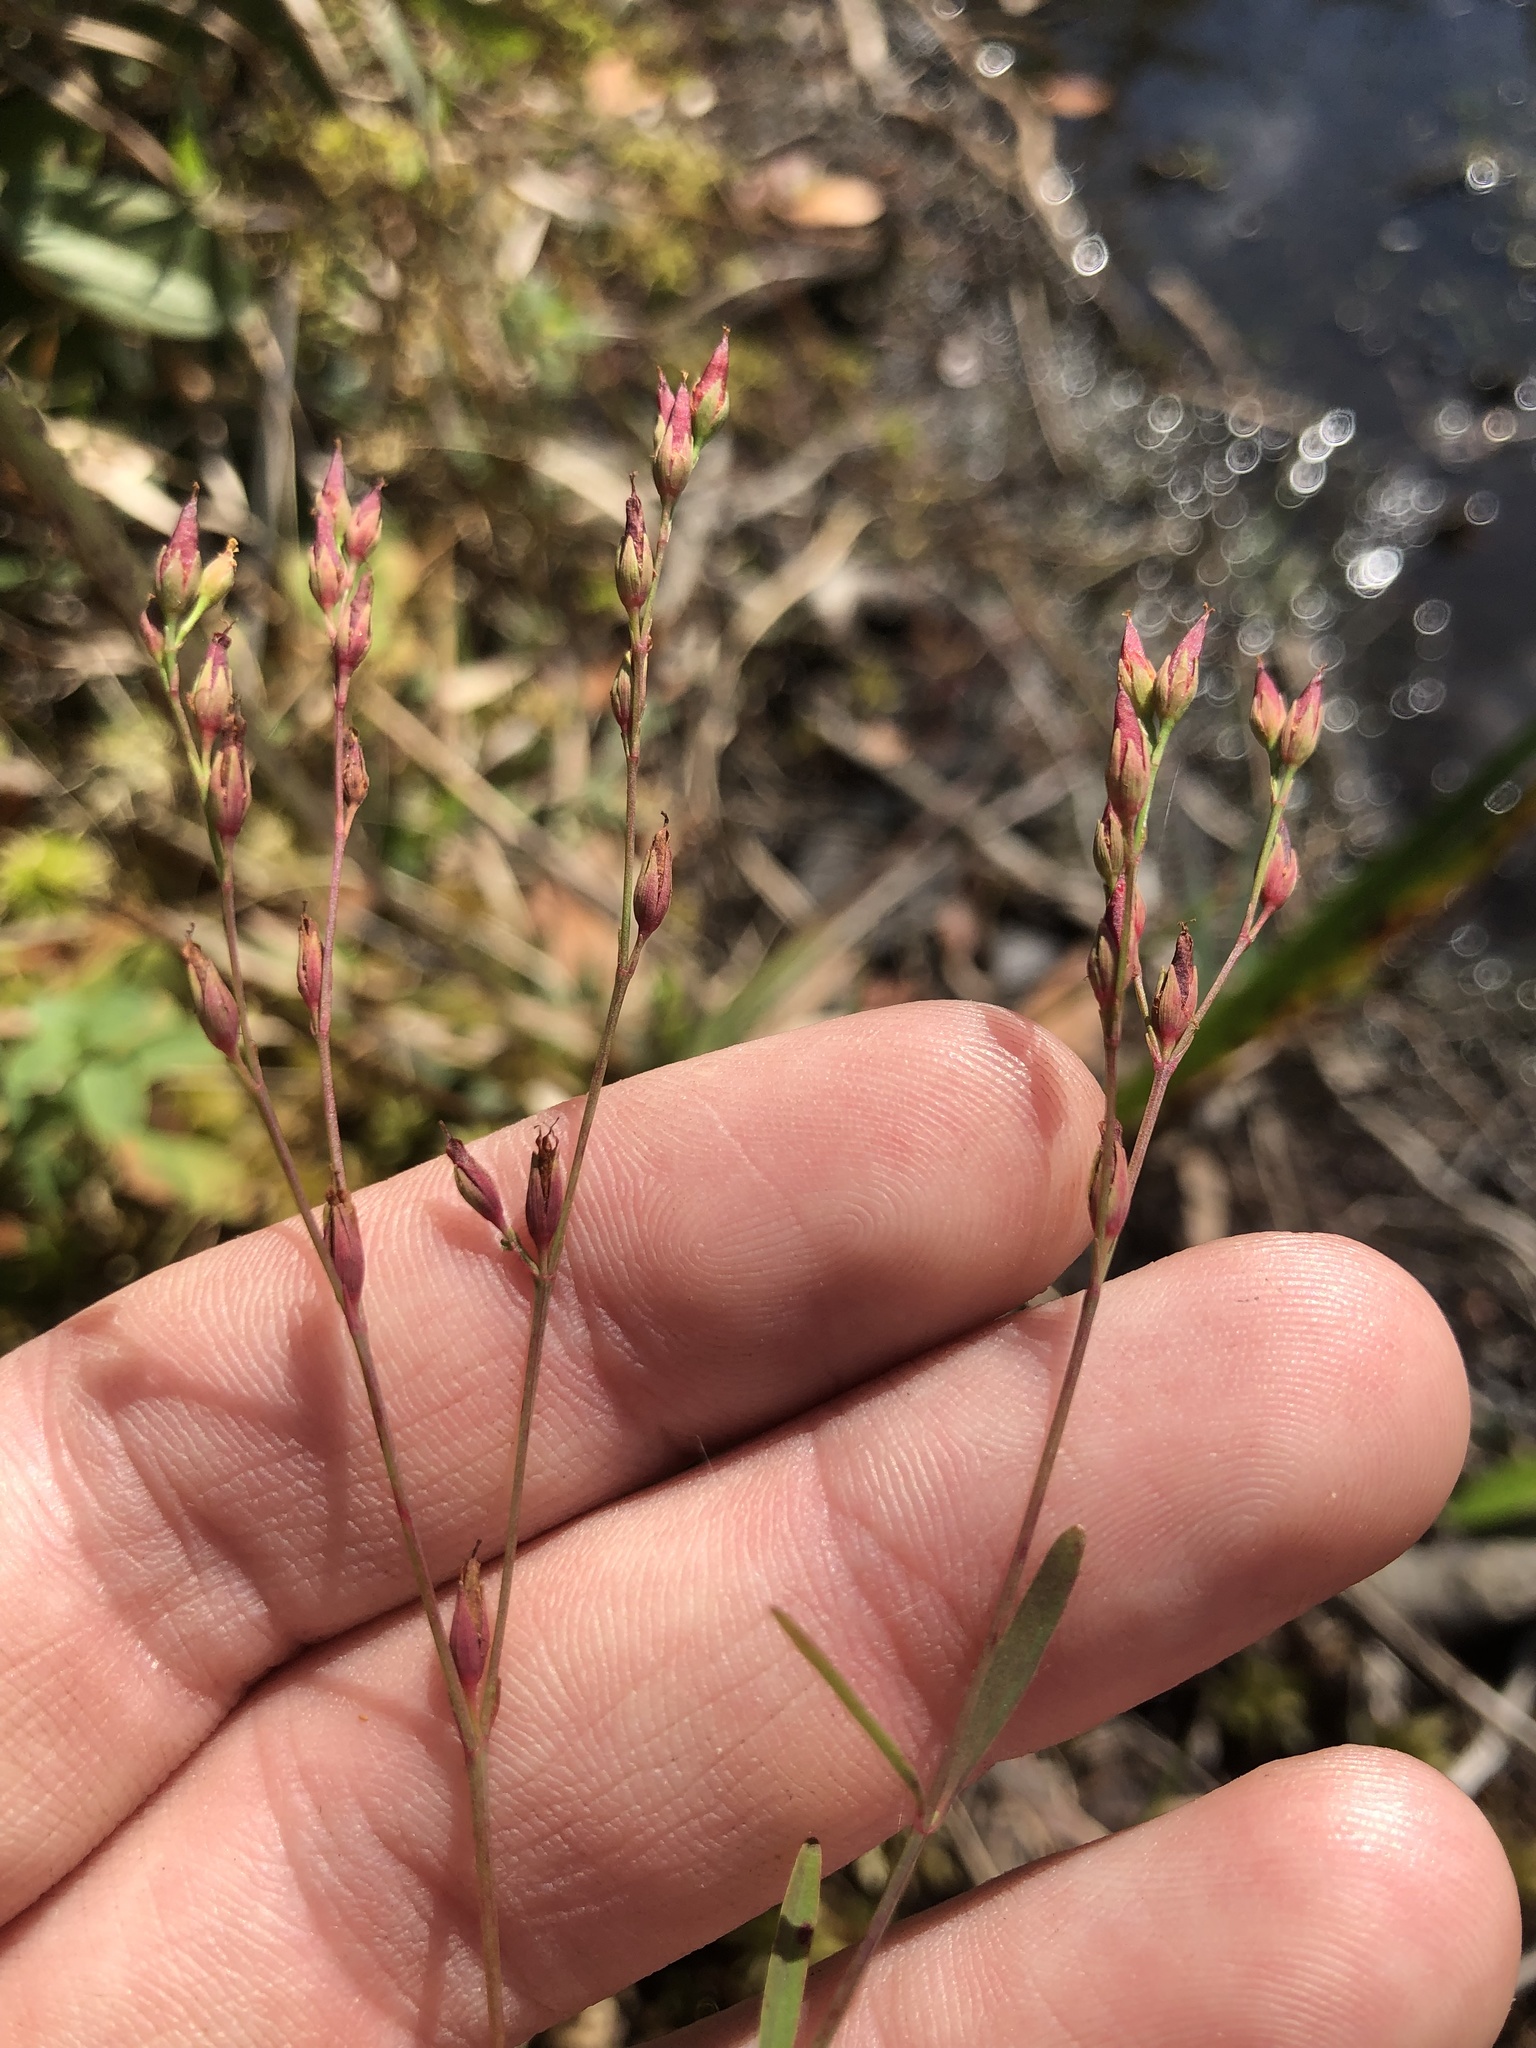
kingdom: Plantae
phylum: Tracheophyta
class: Magnoliopsida
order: Malpighiales
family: Hypericaceae
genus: Hypericum
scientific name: Hypericum canadense
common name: Irish st. john's-wort
